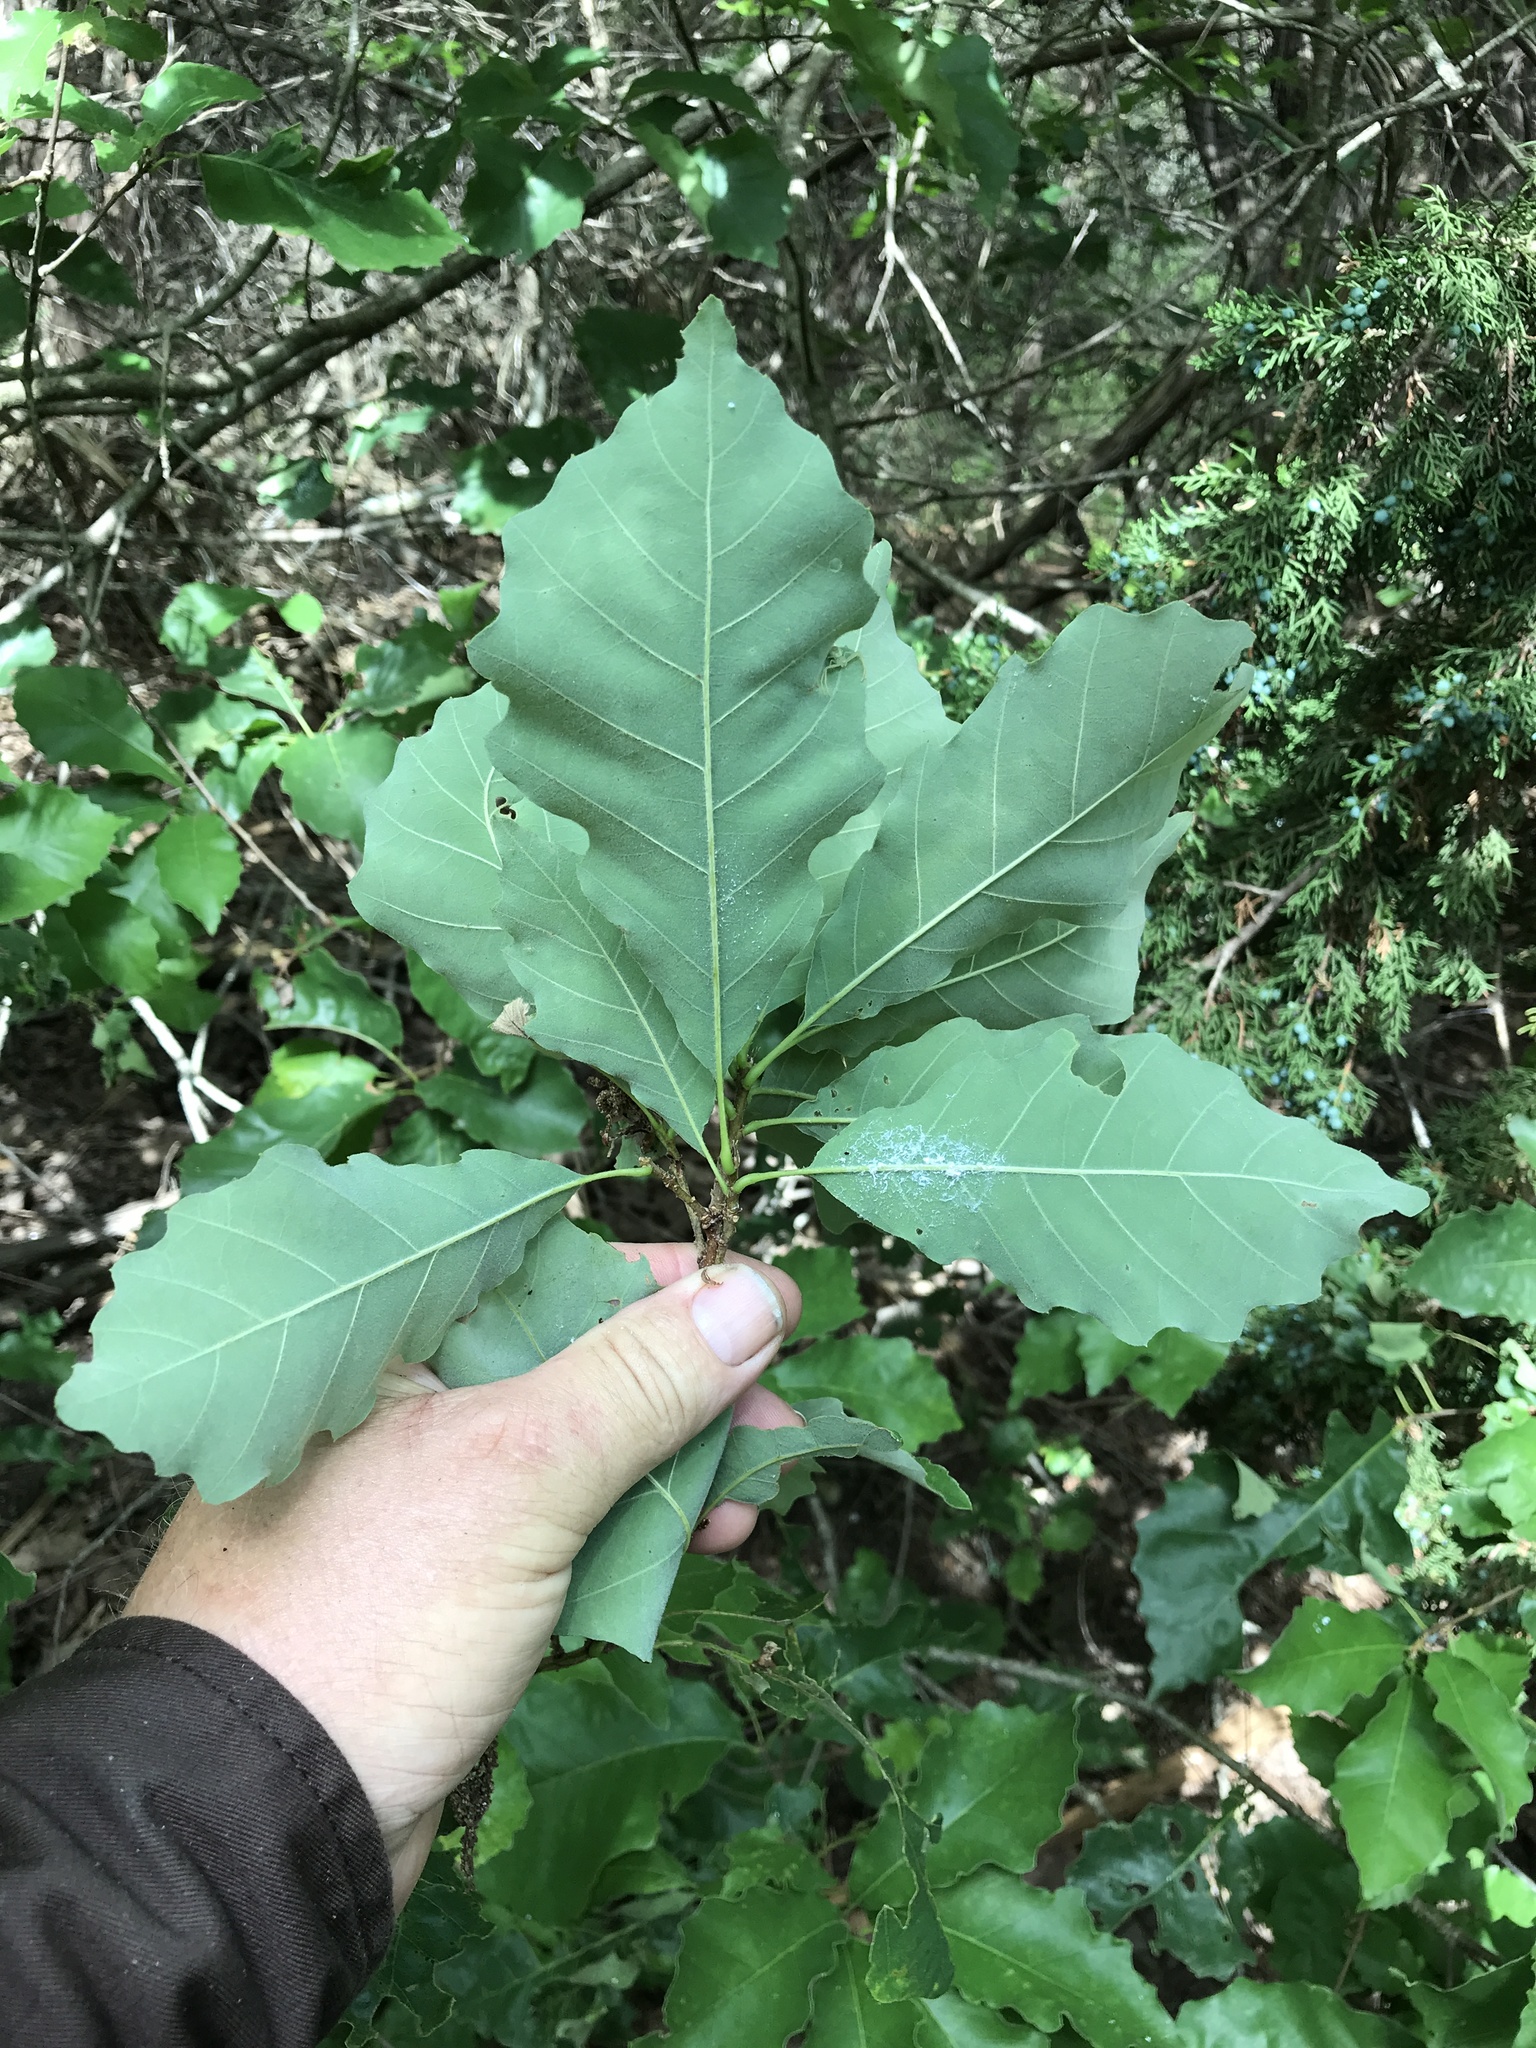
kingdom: Plantae
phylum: Tracheophyta
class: Magnoliopsida
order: Fagales
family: Fagaceae
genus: Quercus
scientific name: Quercus muehlenbergii
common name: Chinkapin oak
